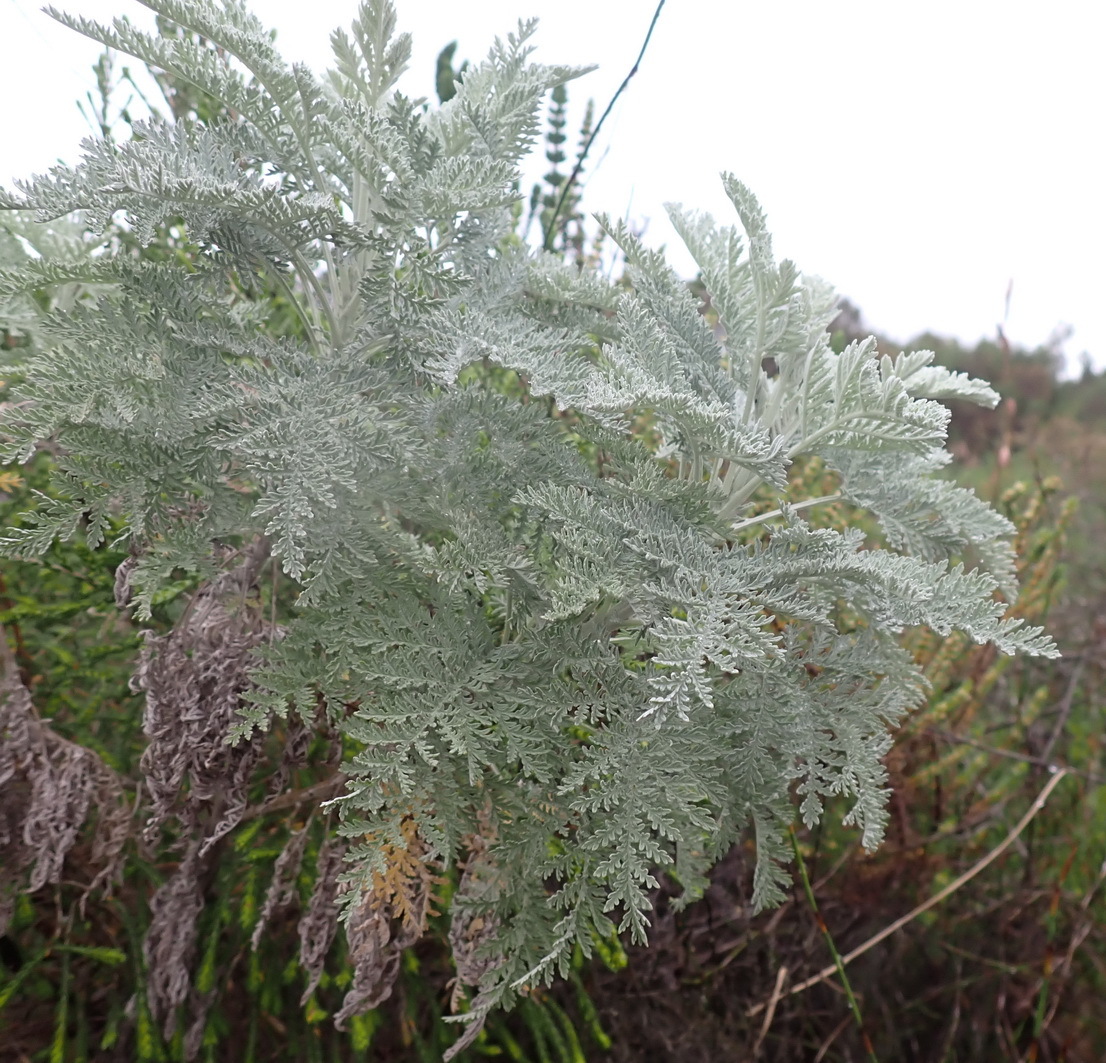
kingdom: Plantae
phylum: Tracheophyta
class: Magnoliopsida
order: Asterales
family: Asteraceae
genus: Artemisia
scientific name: Artemisia afra
